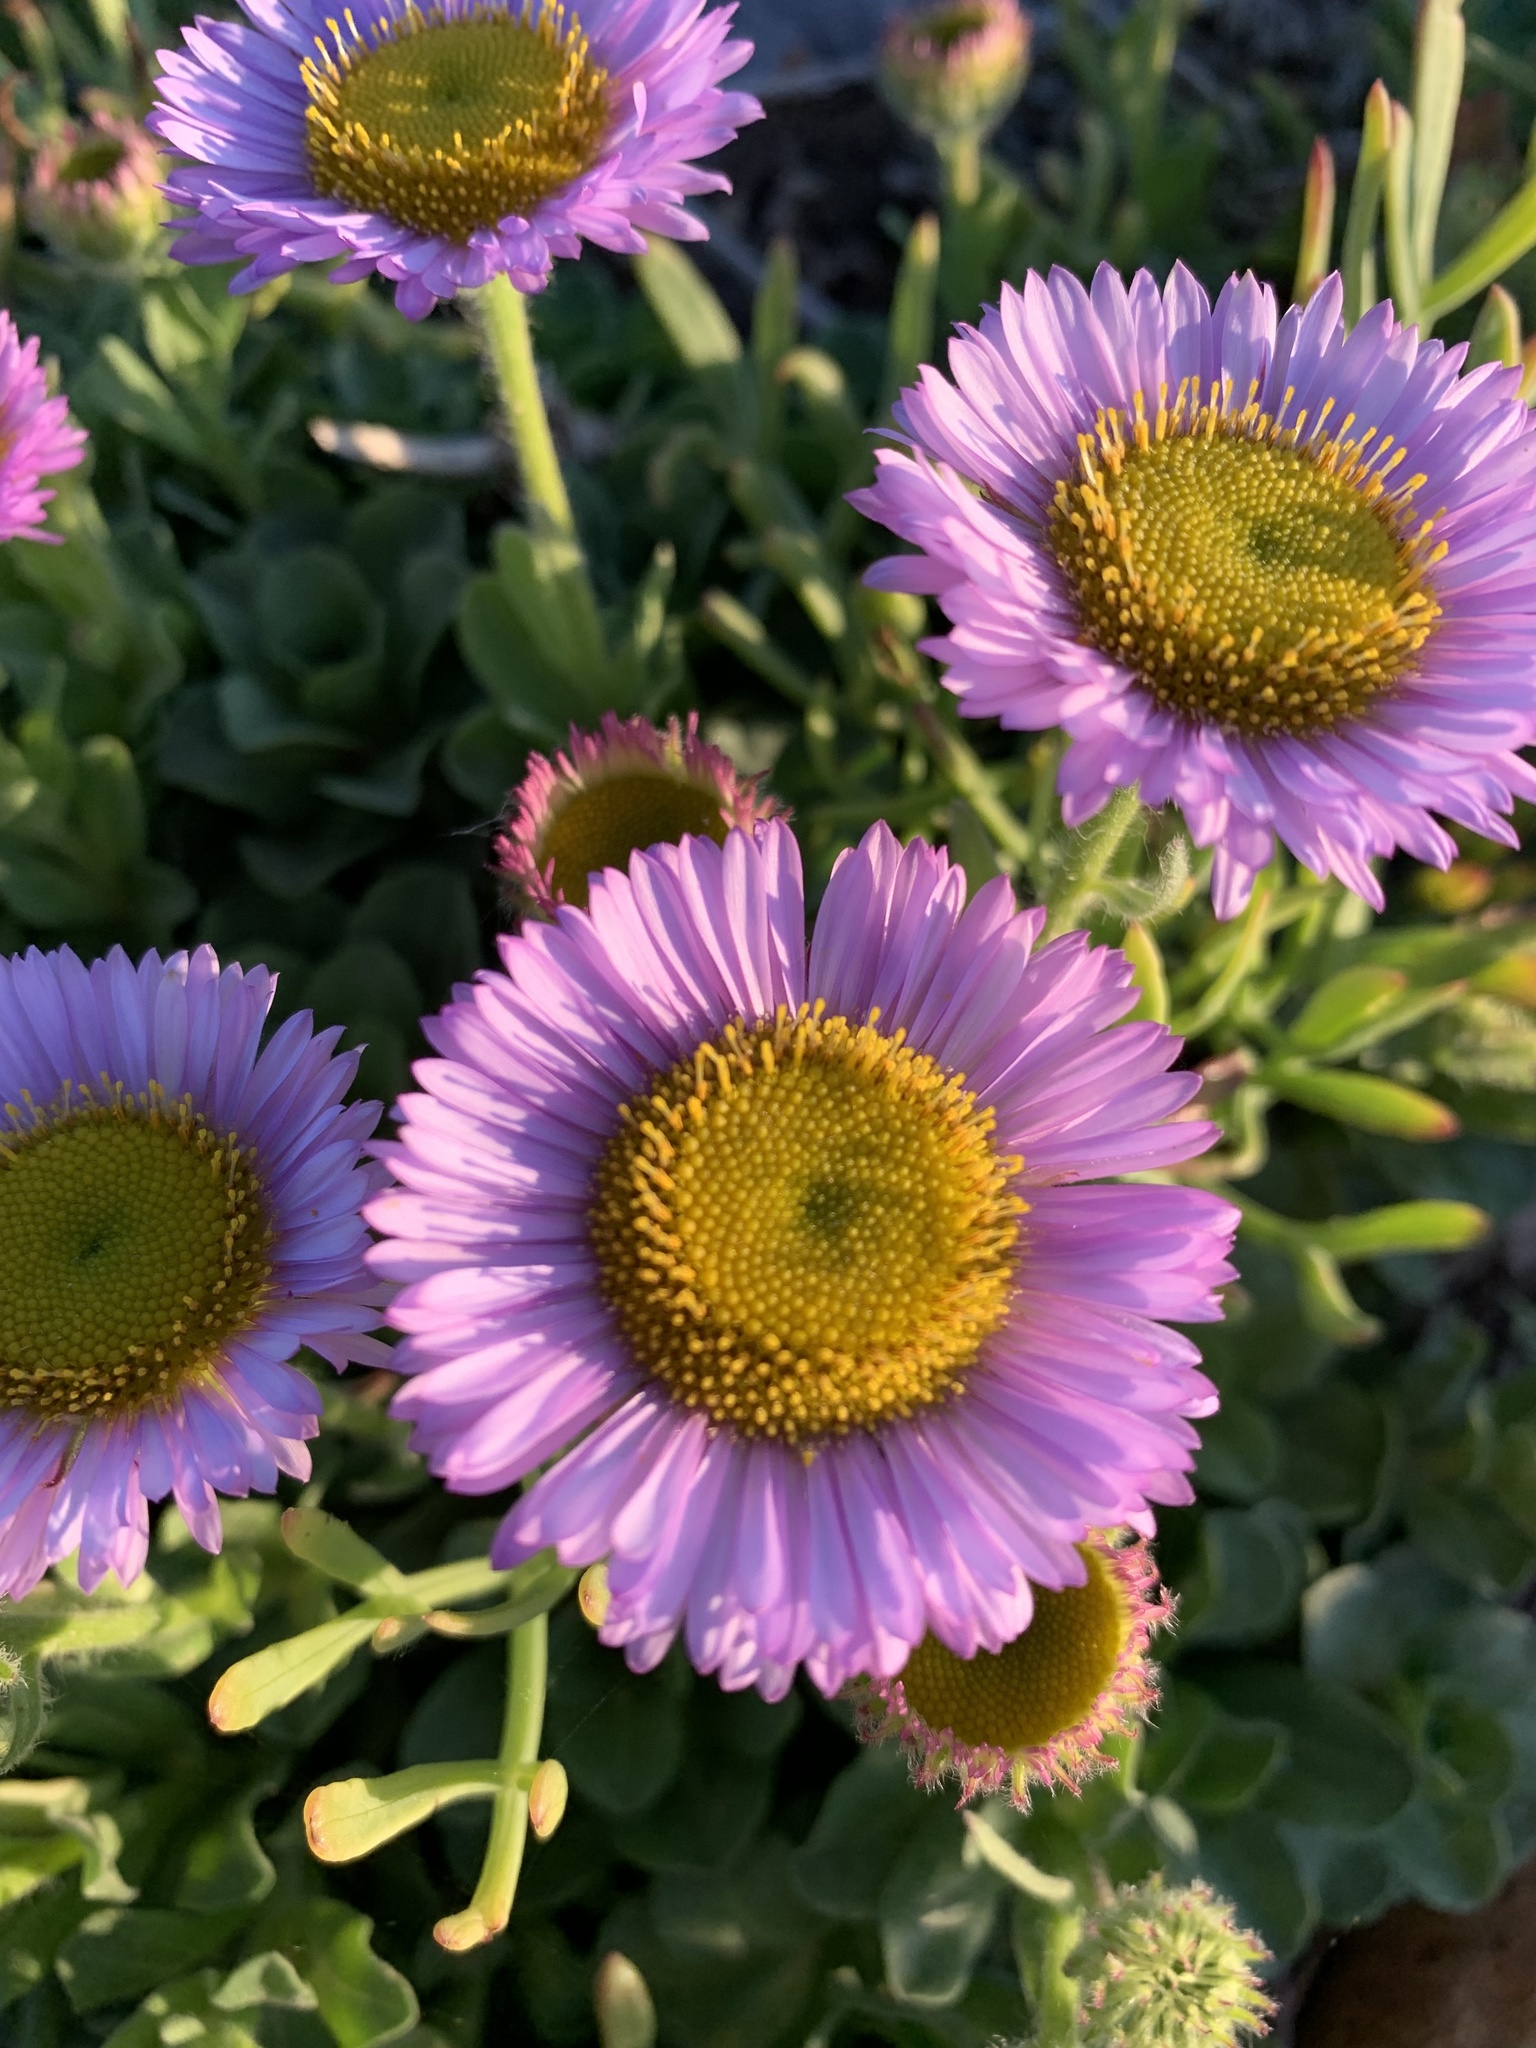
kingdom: Plantae
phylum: Tracheophyta
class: Magnoliopsida
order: Asterales
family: Asteraceae
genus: Erigeron
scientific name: Erigeron glaucus
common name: Seaside daisy
